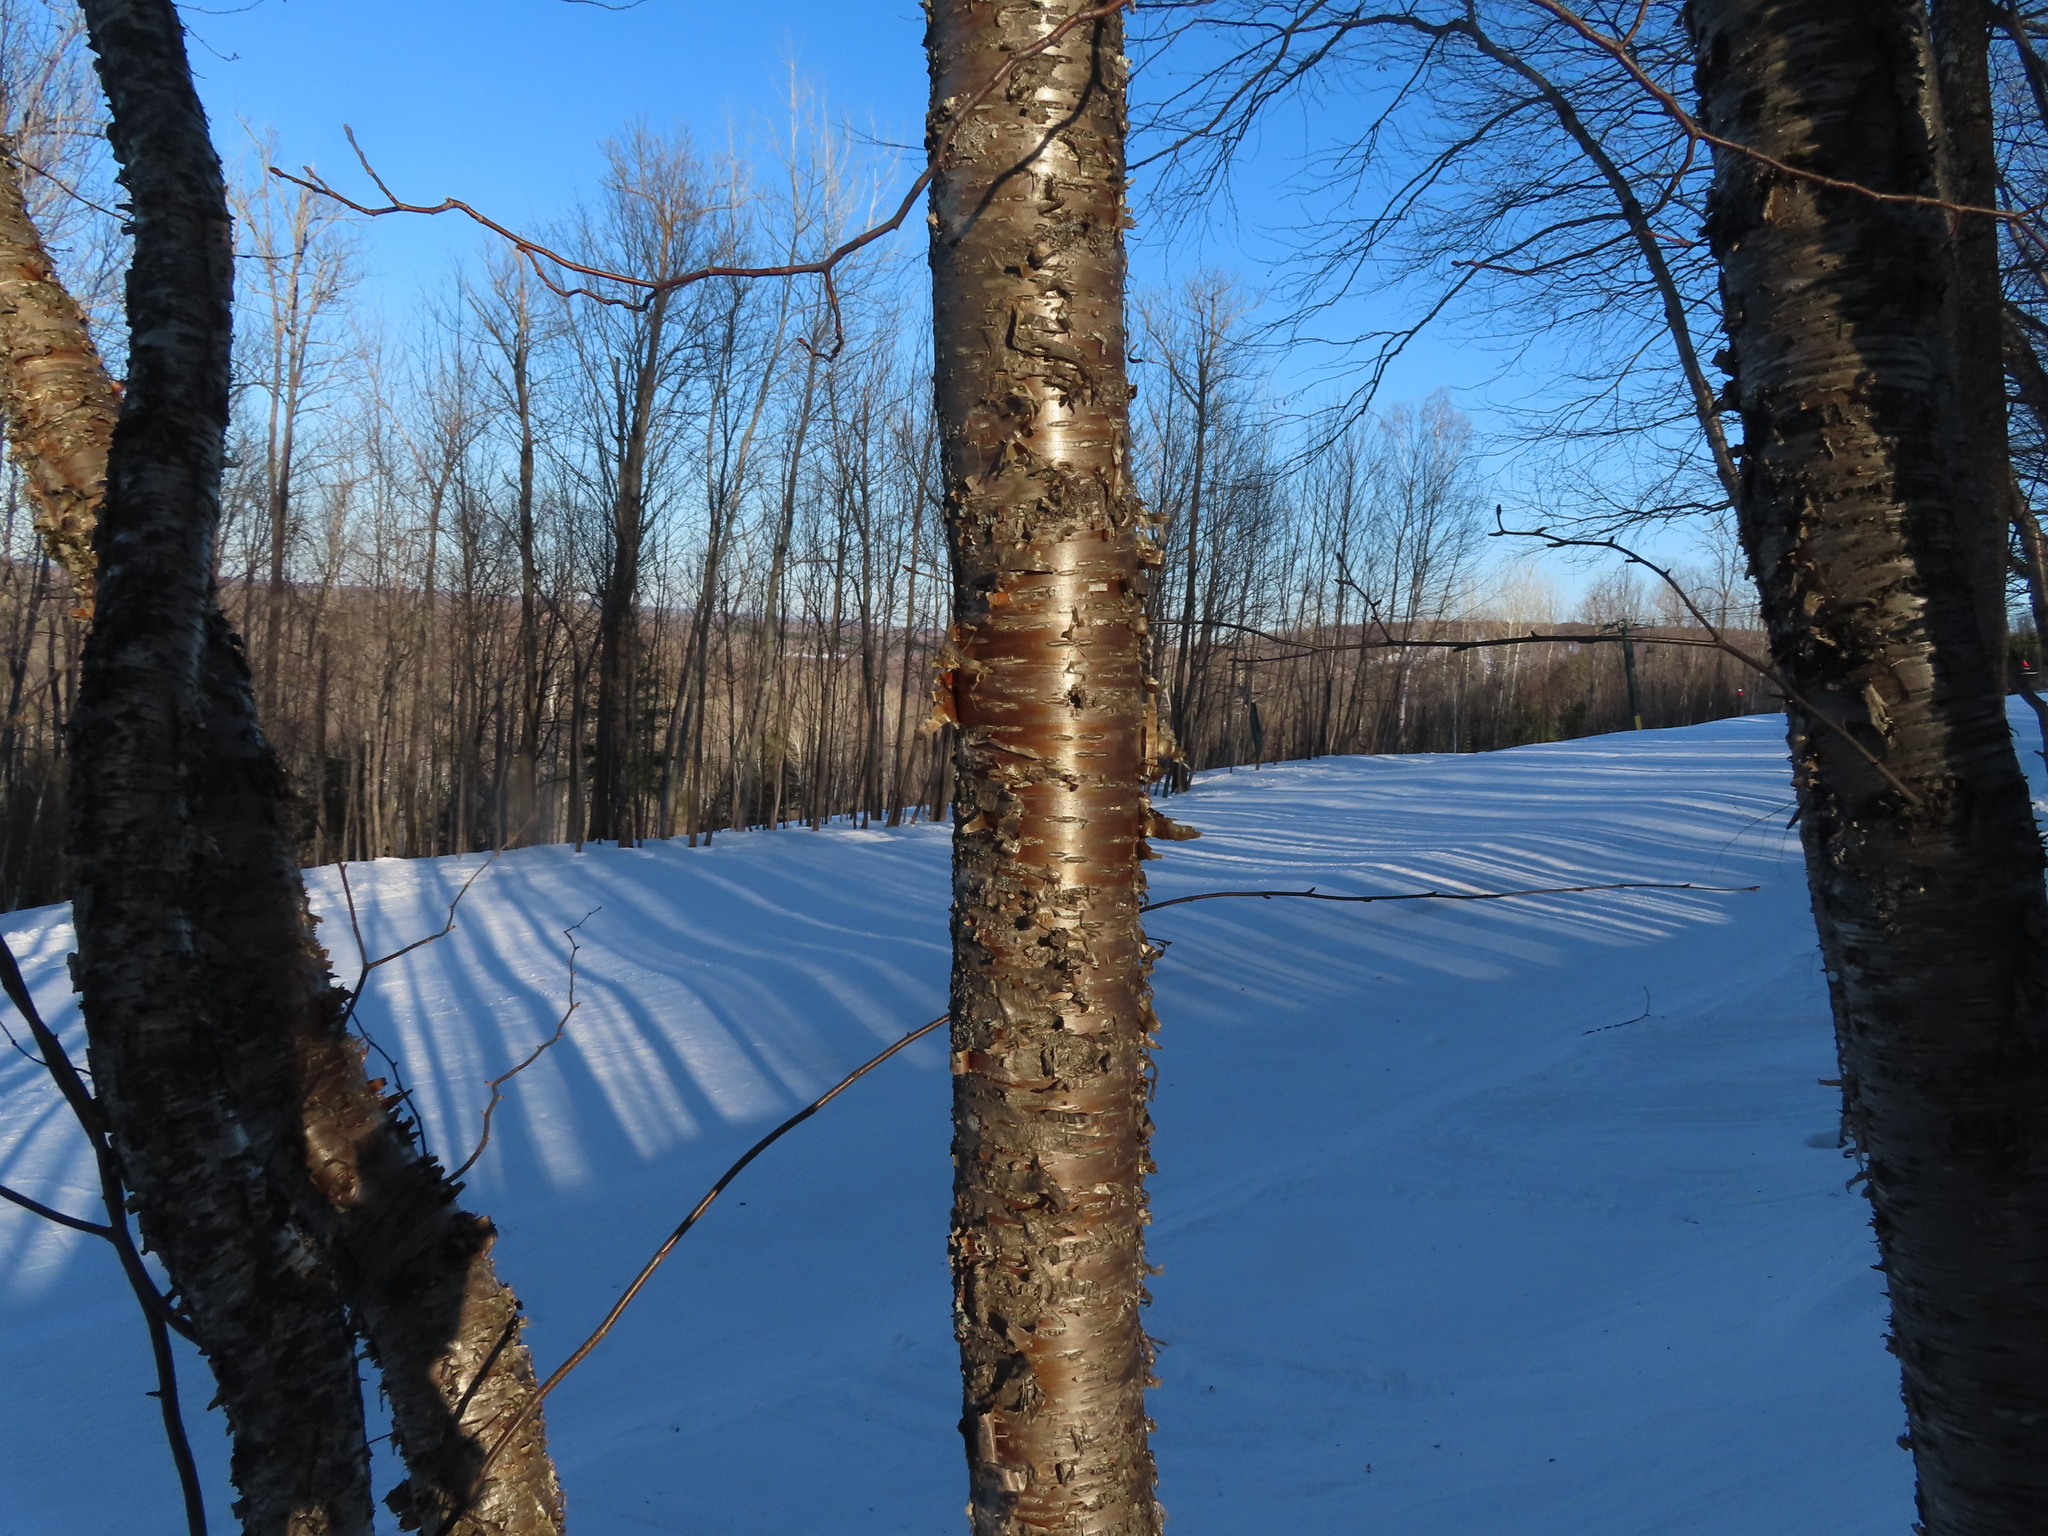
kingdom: Plantae
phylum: Tracheophyta
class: Magnoliopsida
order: Fagales
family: Betulaceae
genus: Betula
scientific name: Betula alleghaniensis
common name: Yellow birch
